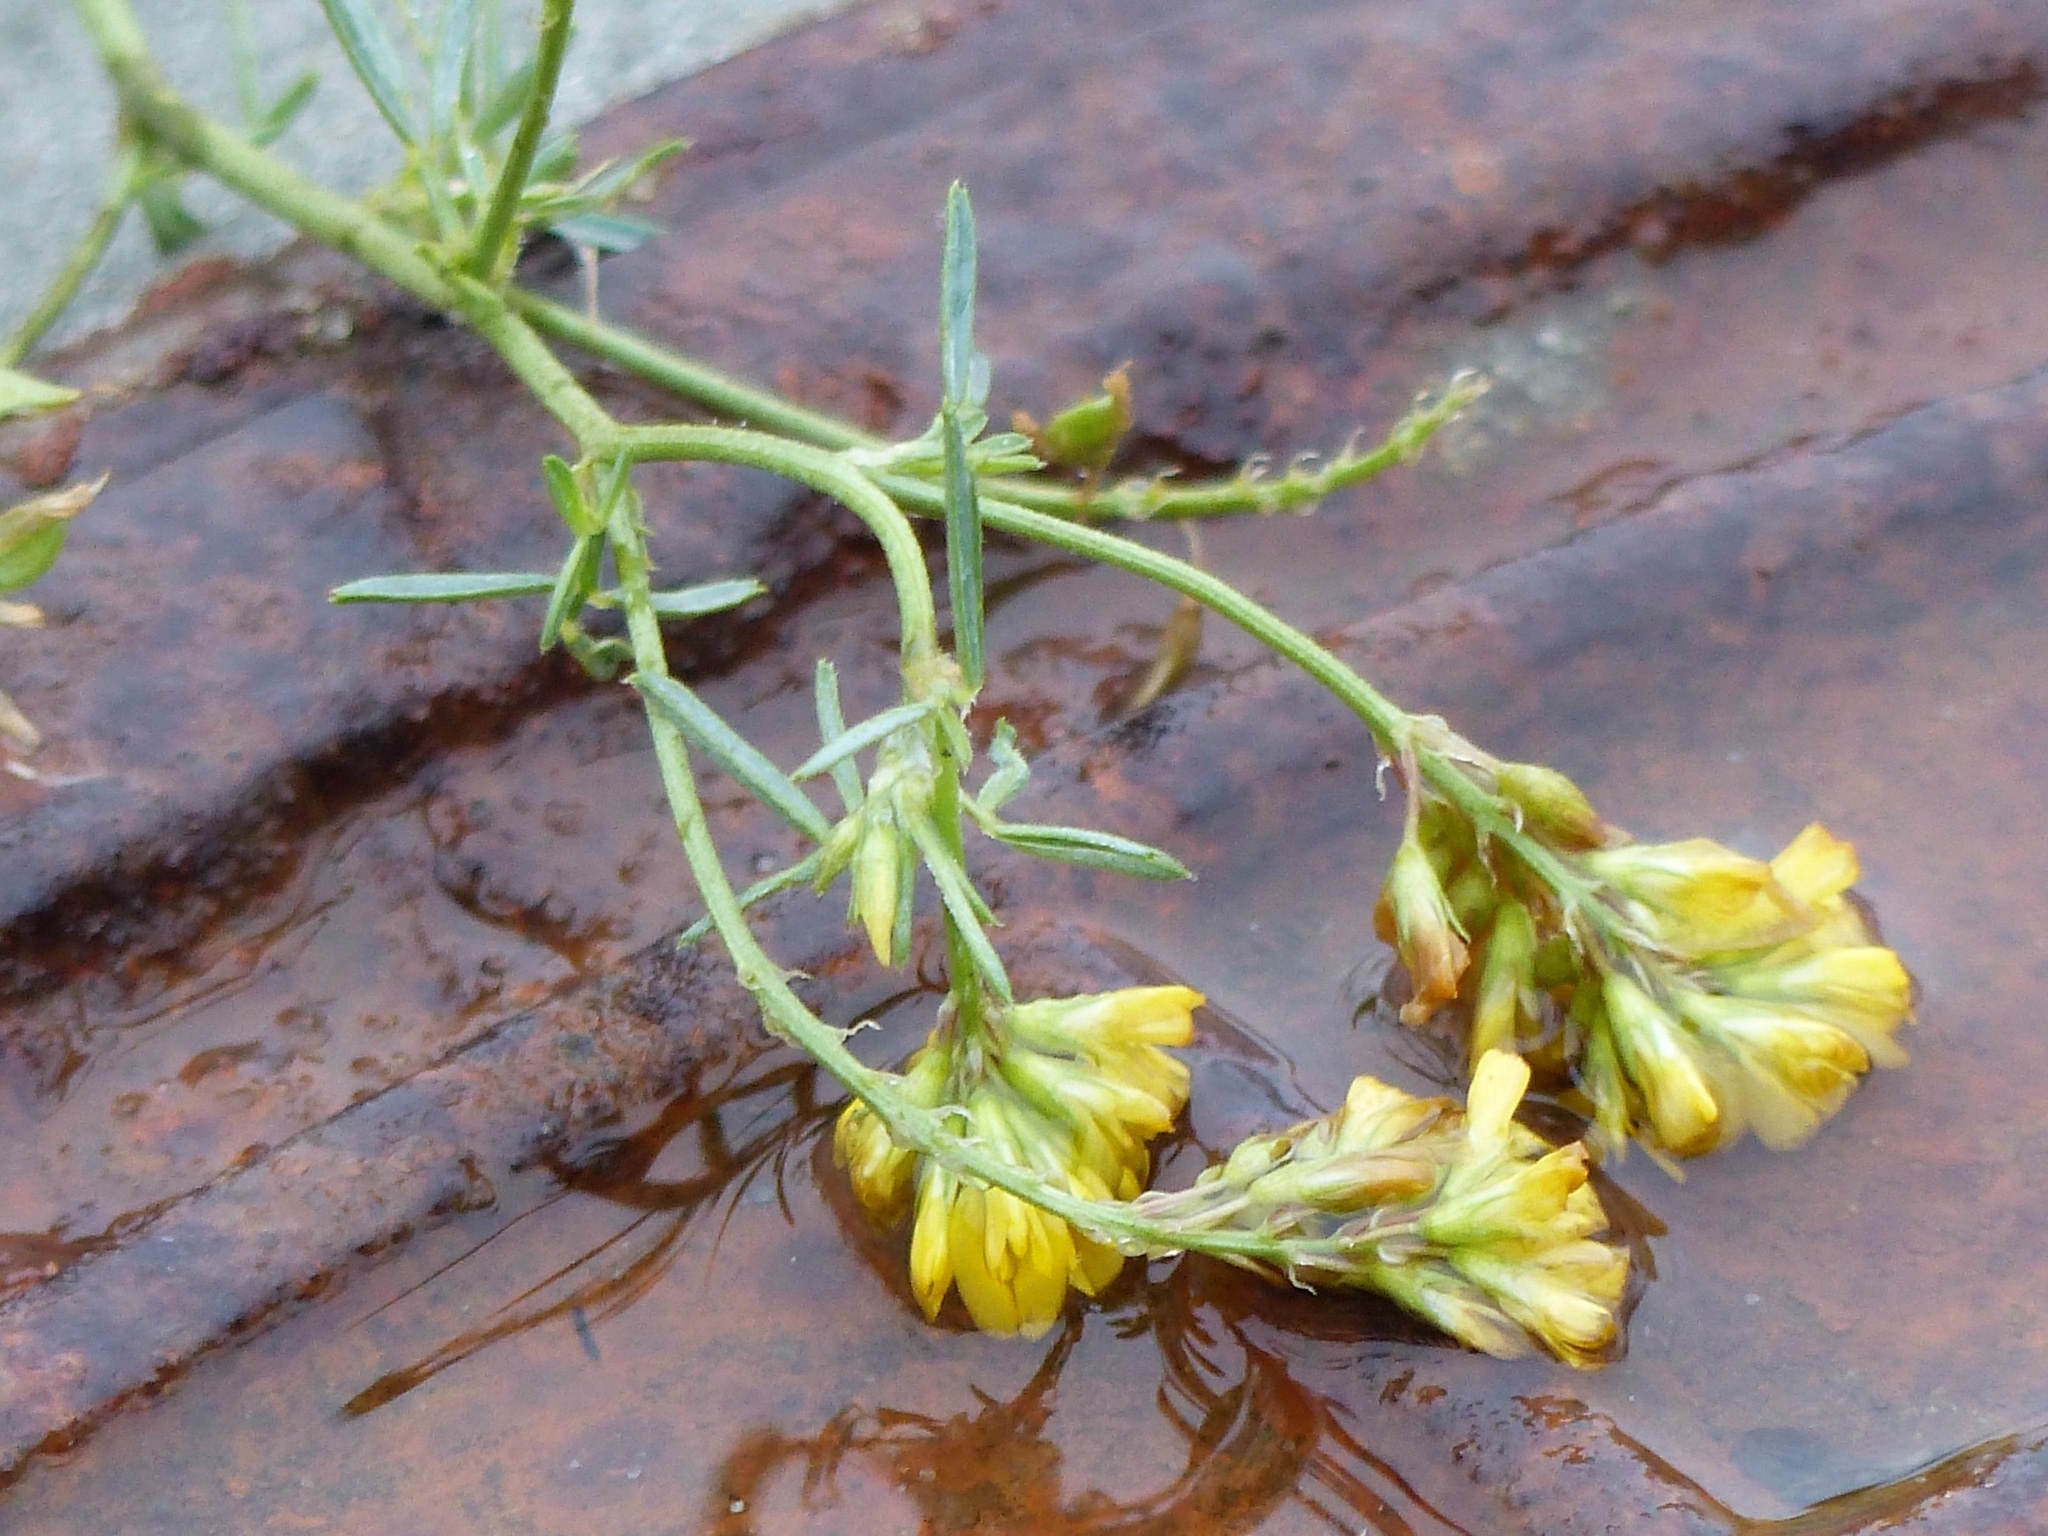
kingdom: Plantae
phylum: Tracheophyta
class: Magnoliopsida
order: Fabales
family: Fabaceae
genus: Medicago
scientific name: Medicago falcata
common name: Sickle medick
